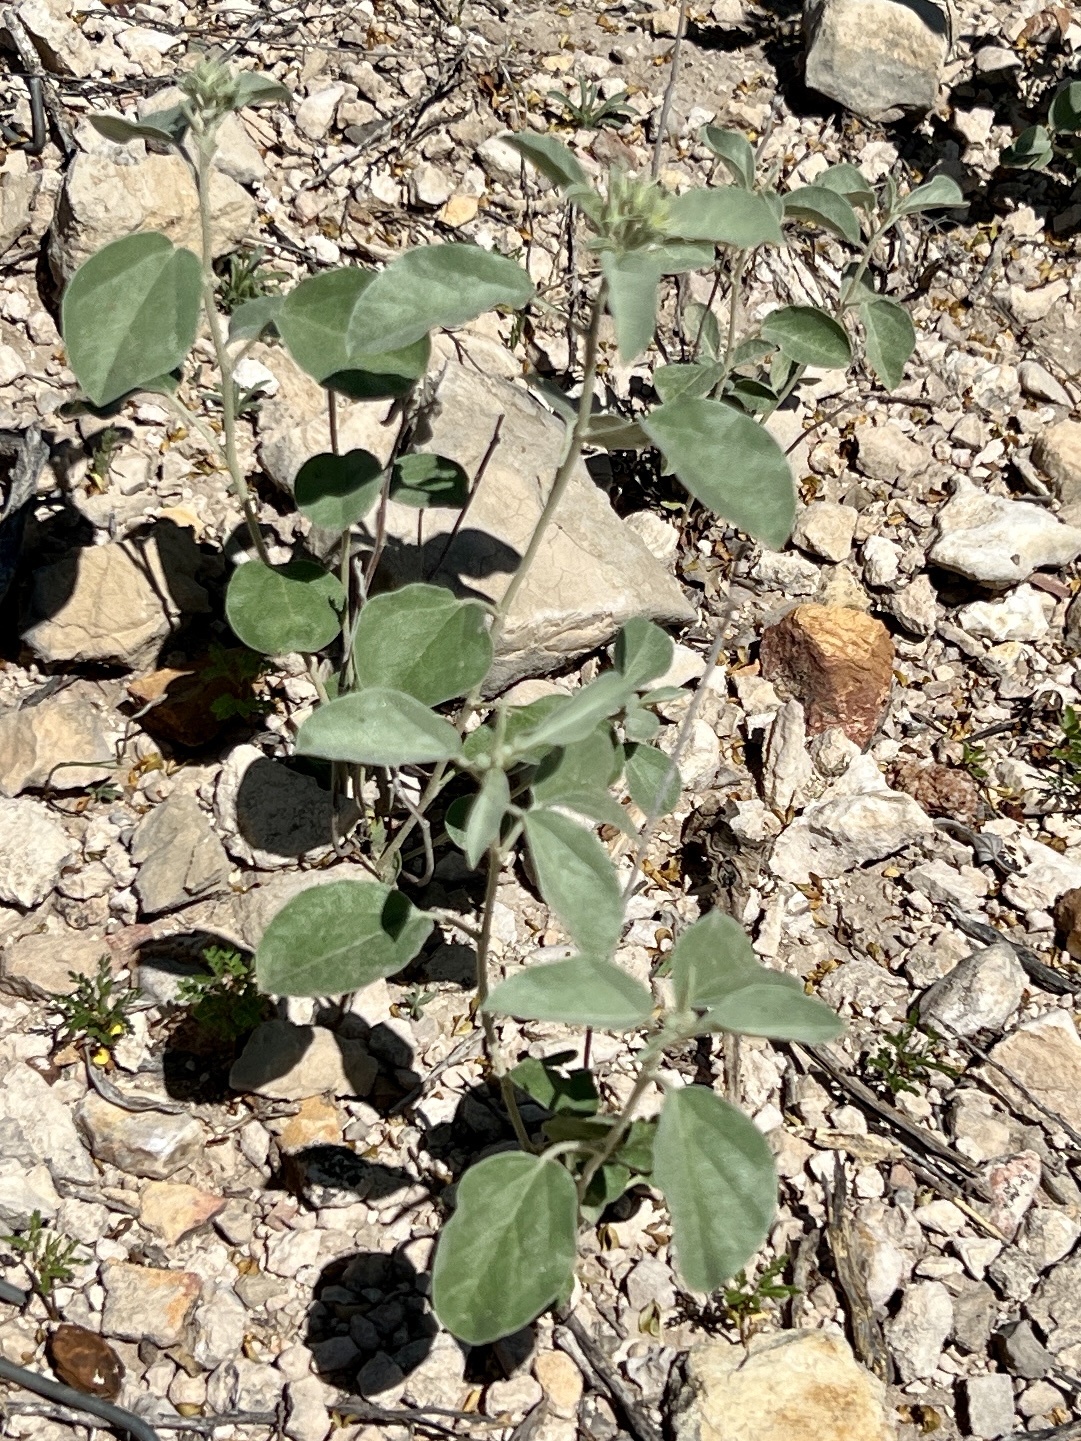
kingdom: Plantae
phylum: Tracheophyta
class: Magnoliopsida
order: Malpighiales
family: Euphorbiaceae
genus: Croton
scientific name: Croton pottsii
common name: Leatherweed
